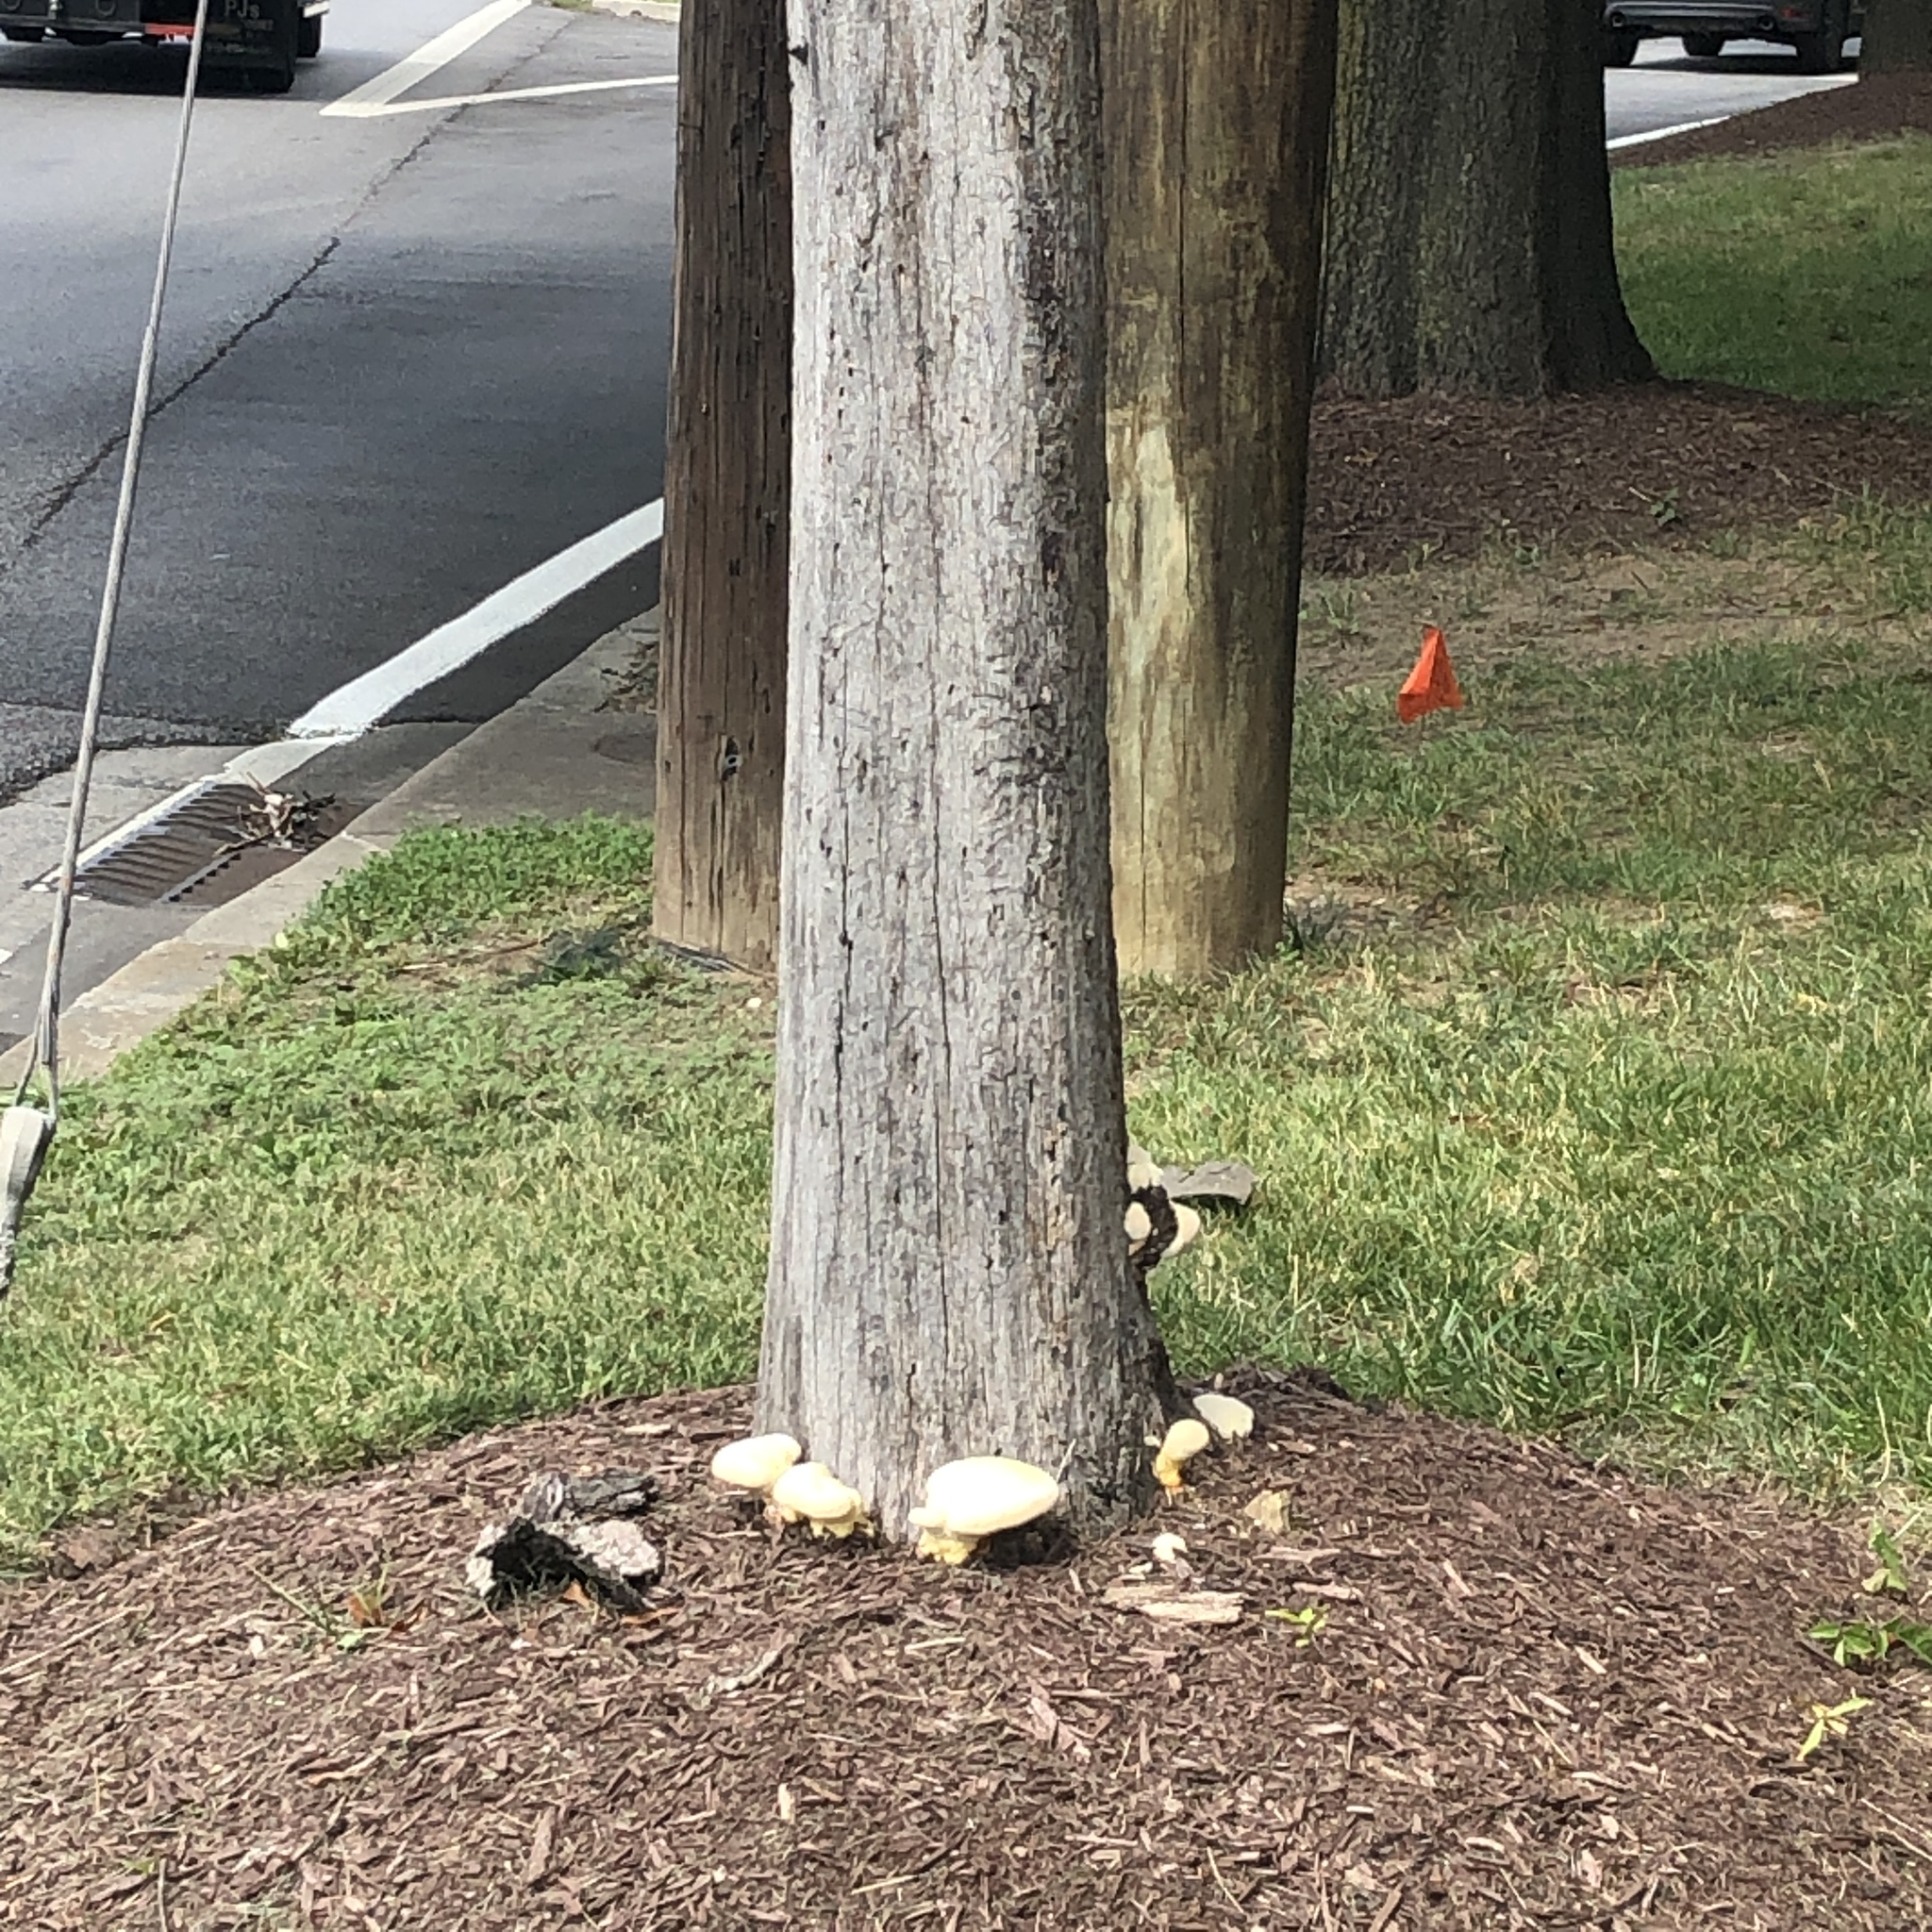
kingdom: Fungi
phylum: Basidiomycota
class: Agaricomycetes
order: Polyporales
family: Polyporaceae
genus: Ganoderma
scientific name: Ganoderma resinaceum
